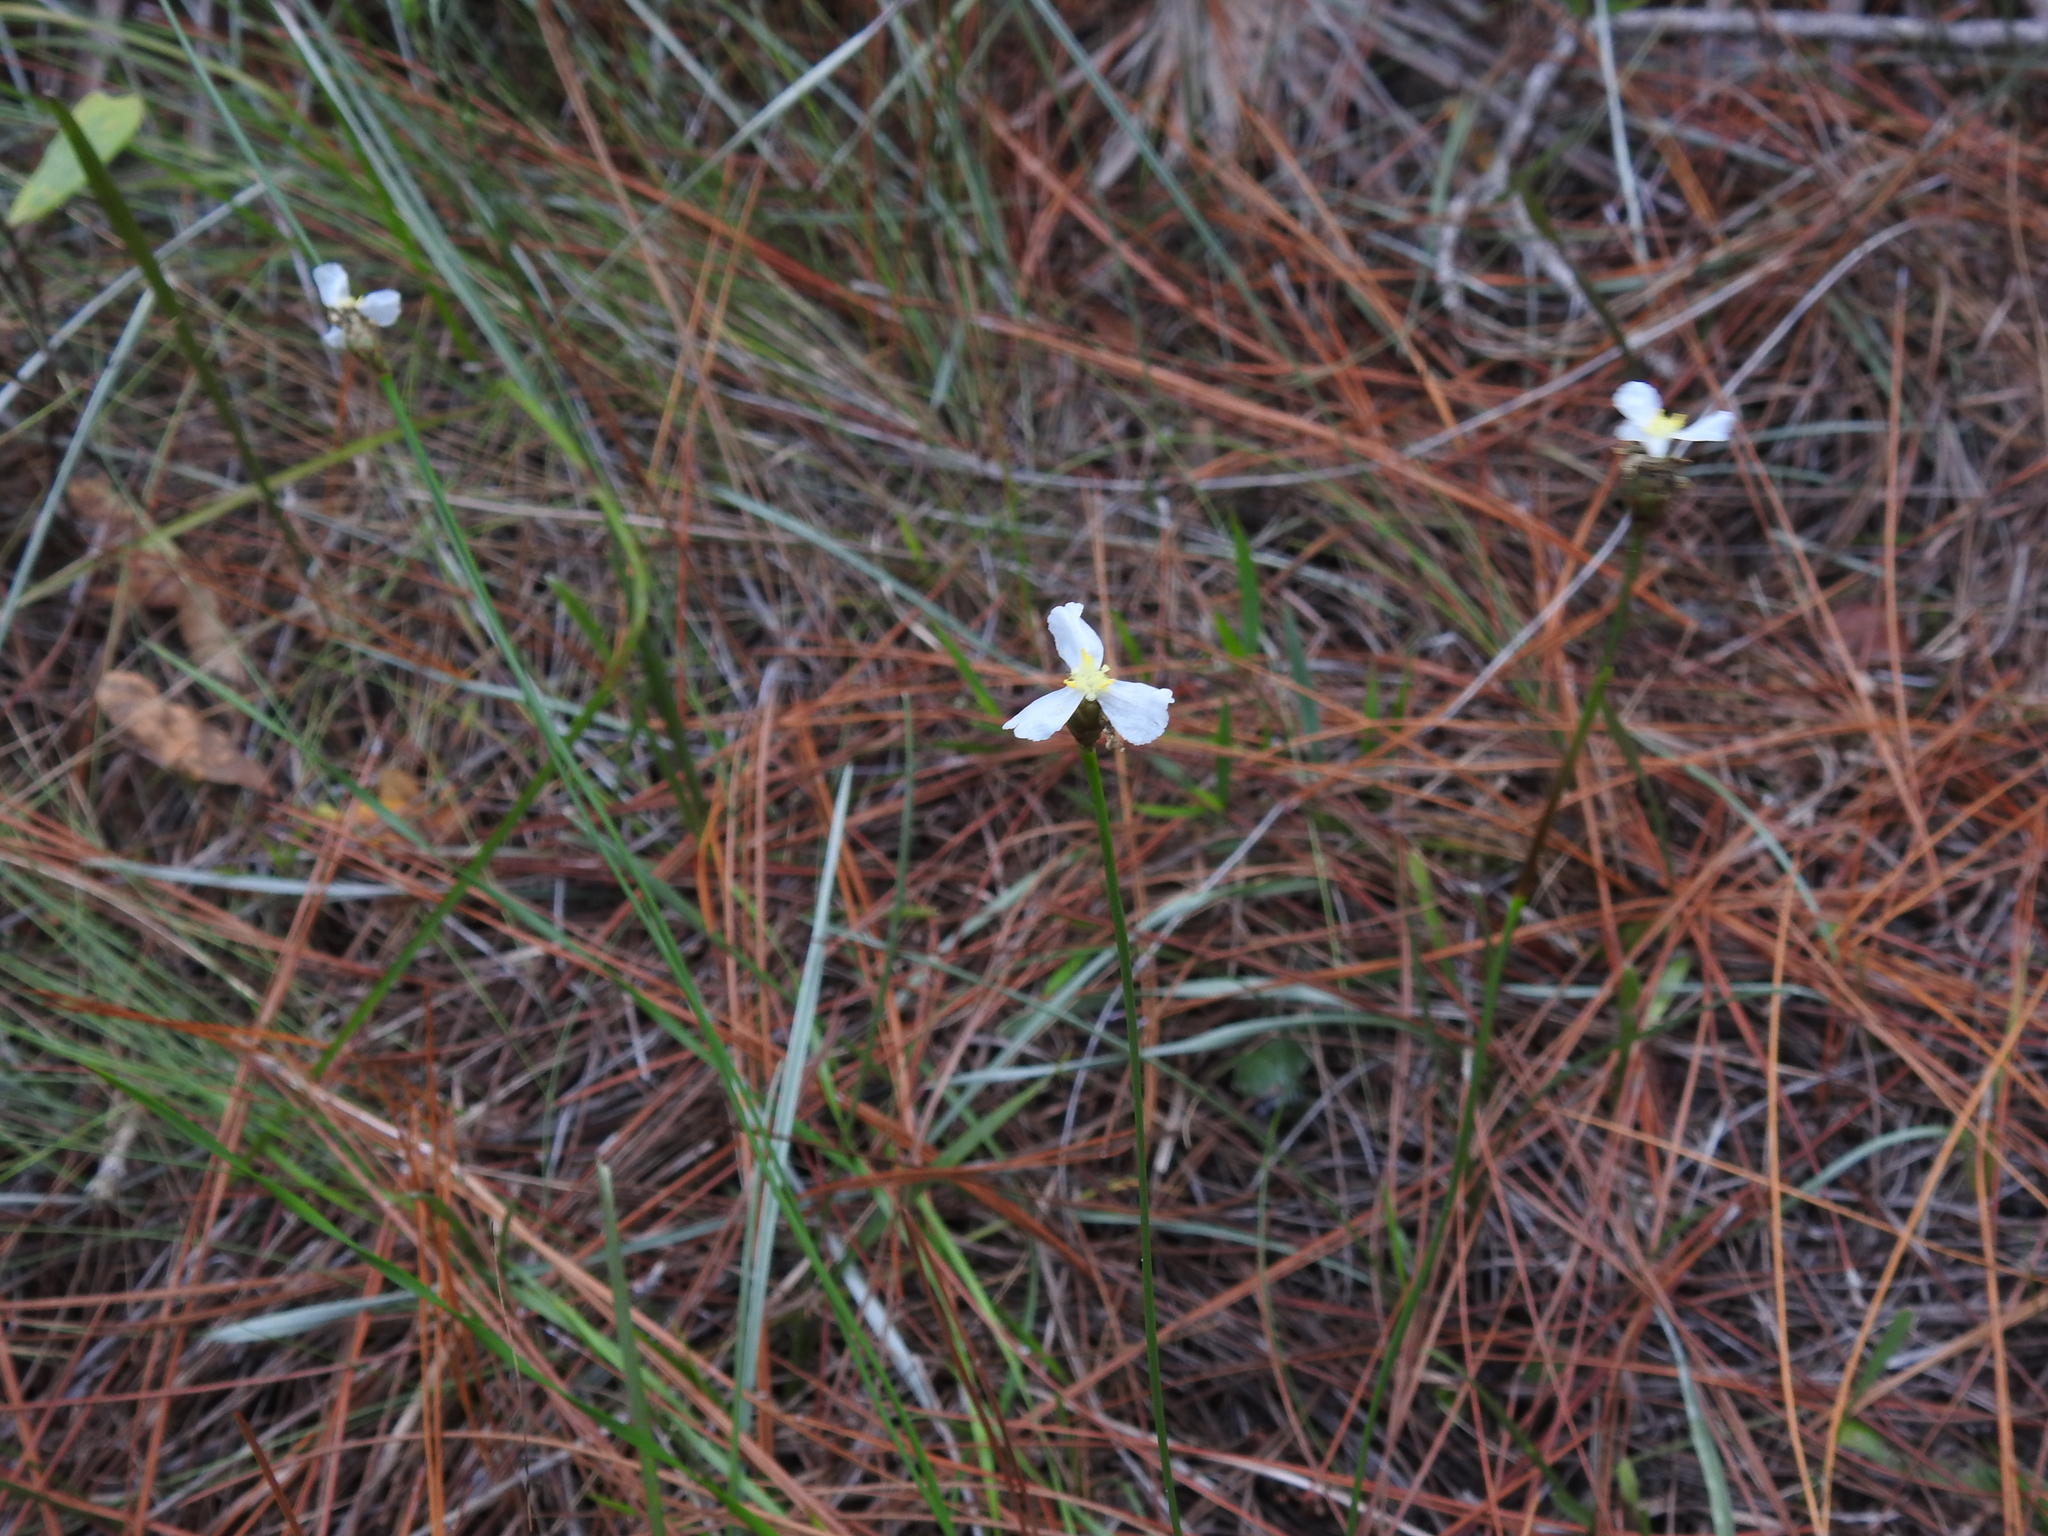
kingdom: Plantae
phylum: Tracheophyta
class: Liliopsida
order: Poales
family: Xyridaceae
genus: Xyris
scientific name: Xyris caroliniana
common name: Carolina yellow-eyed-grass
